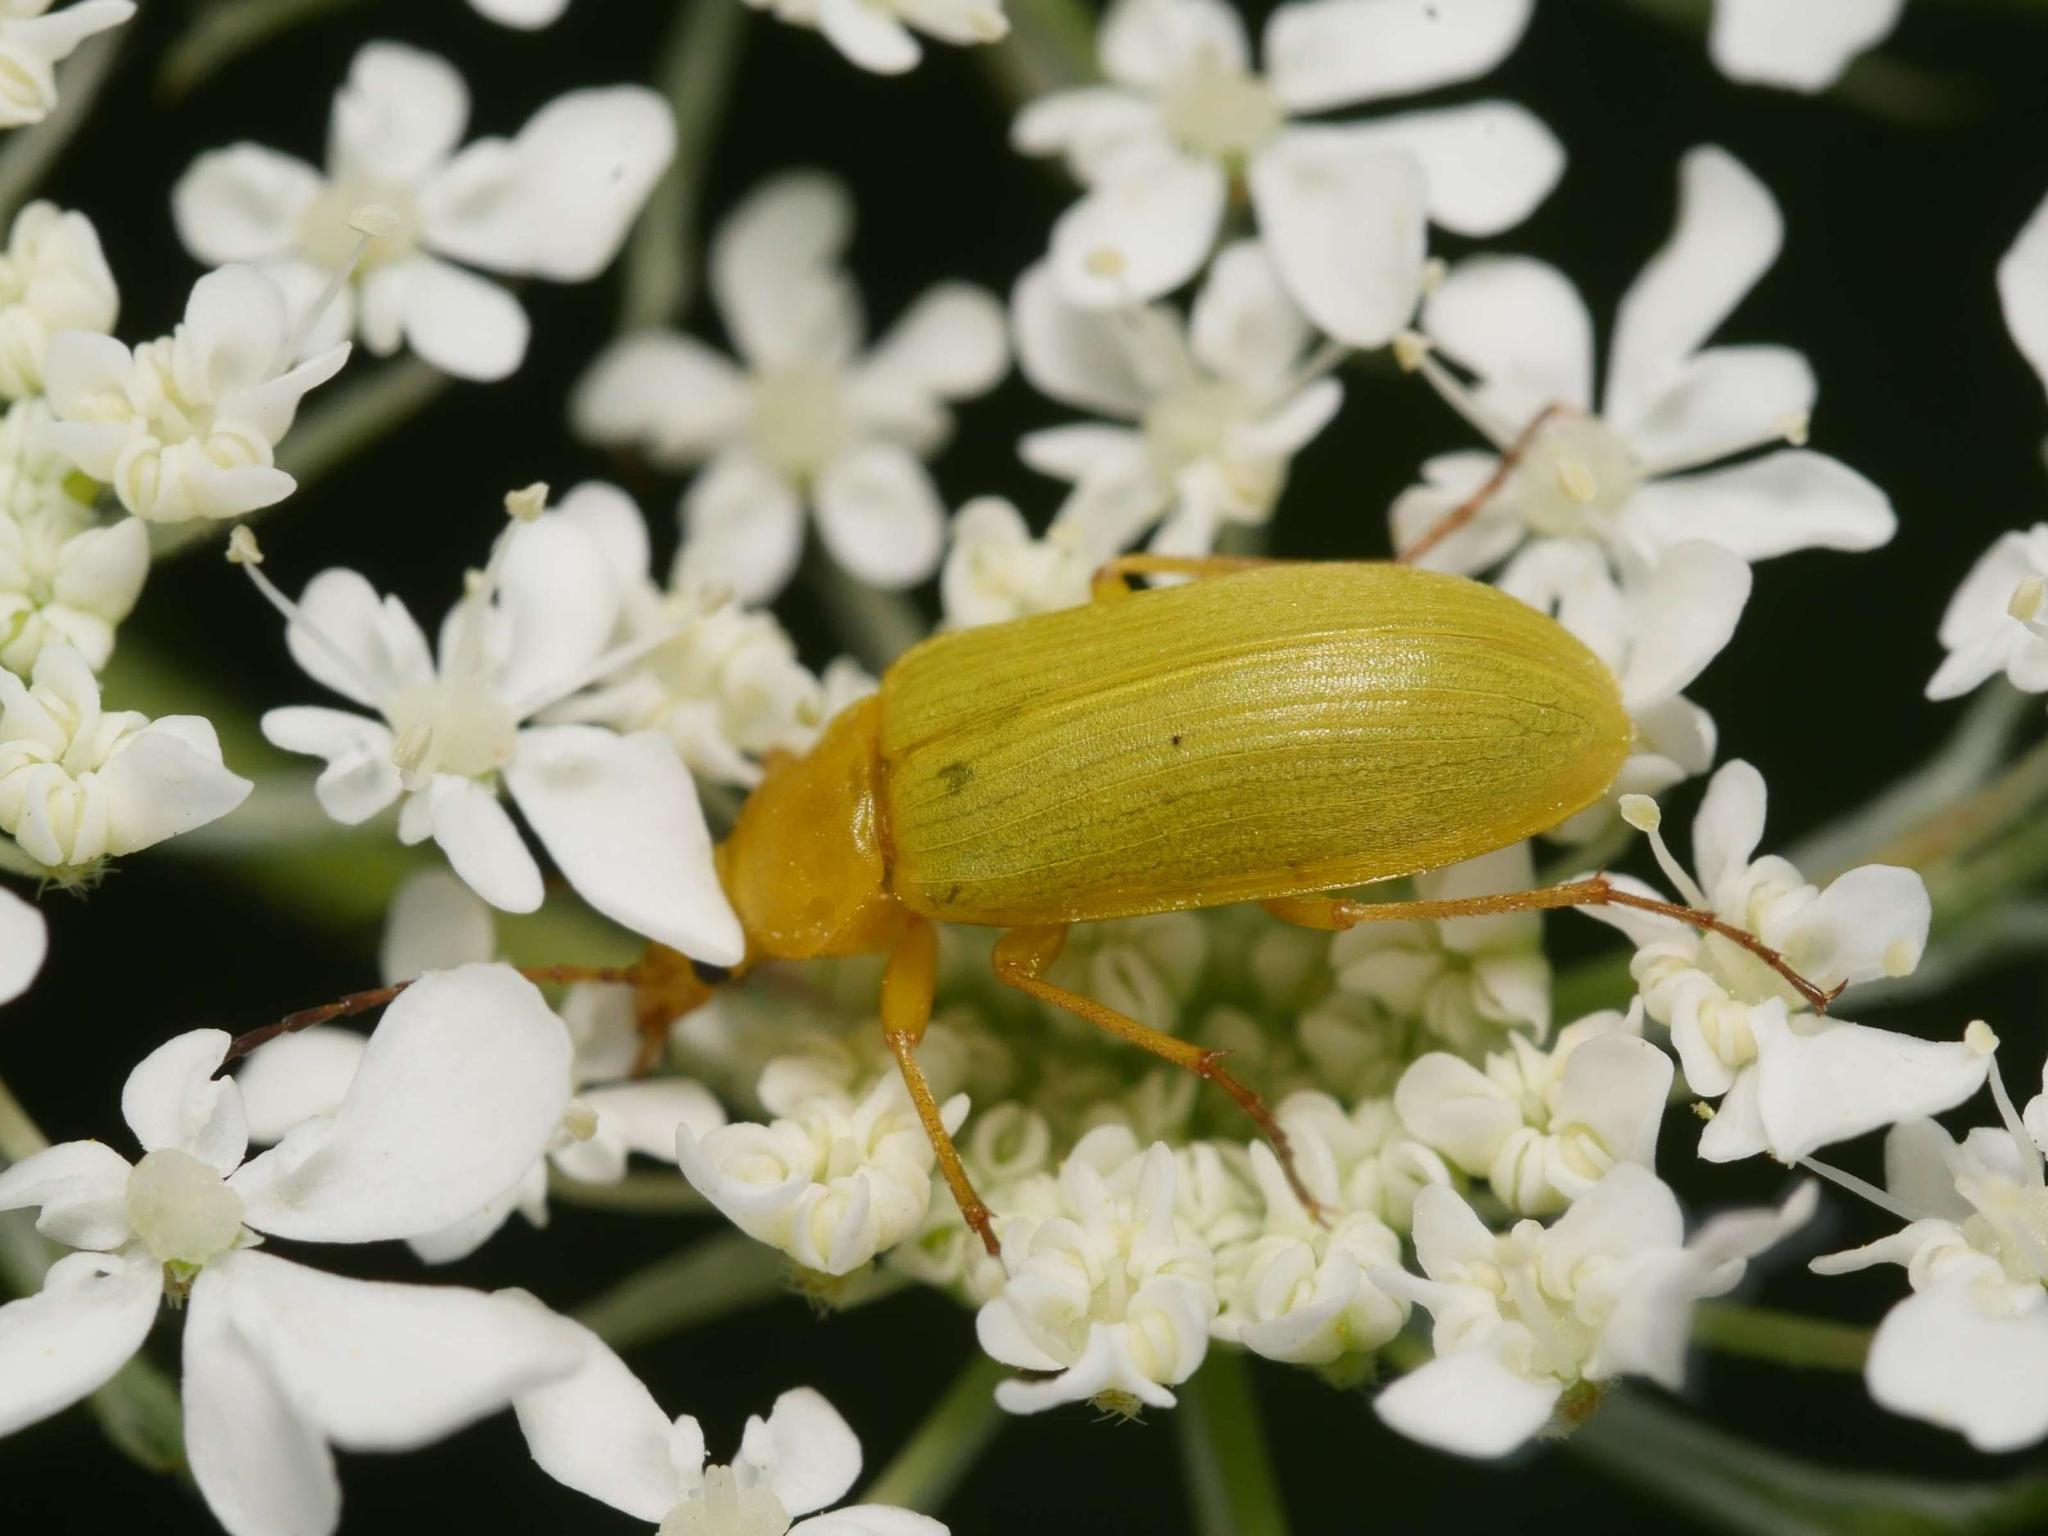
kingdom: Animalia
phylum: Arthropoda
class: Insecta
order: Coleoptera
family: Tenebrionidae
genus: Cteniopus
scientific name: Cteniopus sulphureus
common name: Sulphur beetle
